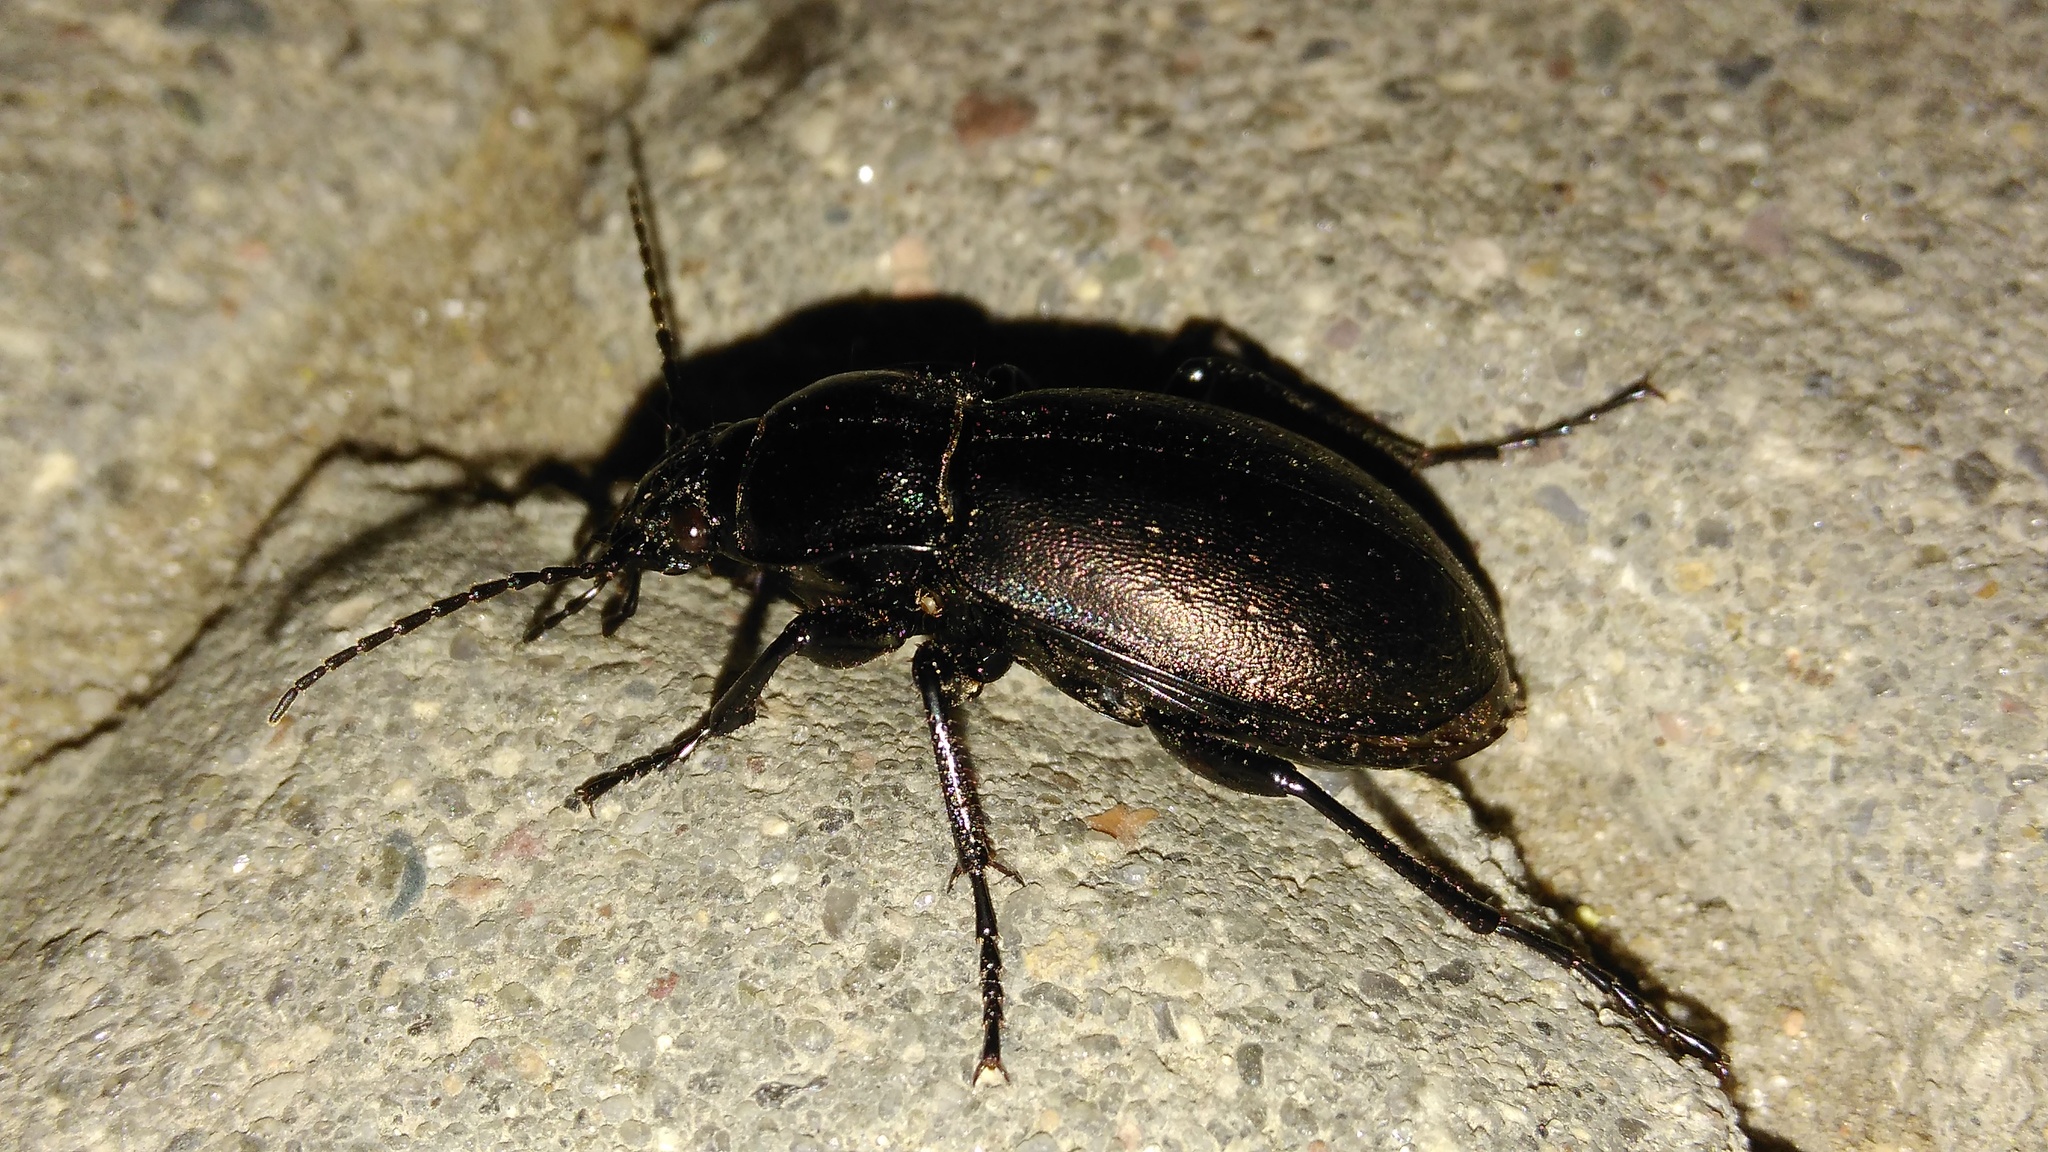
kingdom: Animalia
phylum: Arthropoda
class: Insecta
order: Coleoptera
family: Carabidae
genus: Carabus
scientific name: Carabus nemoralis
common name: European ground beetle
